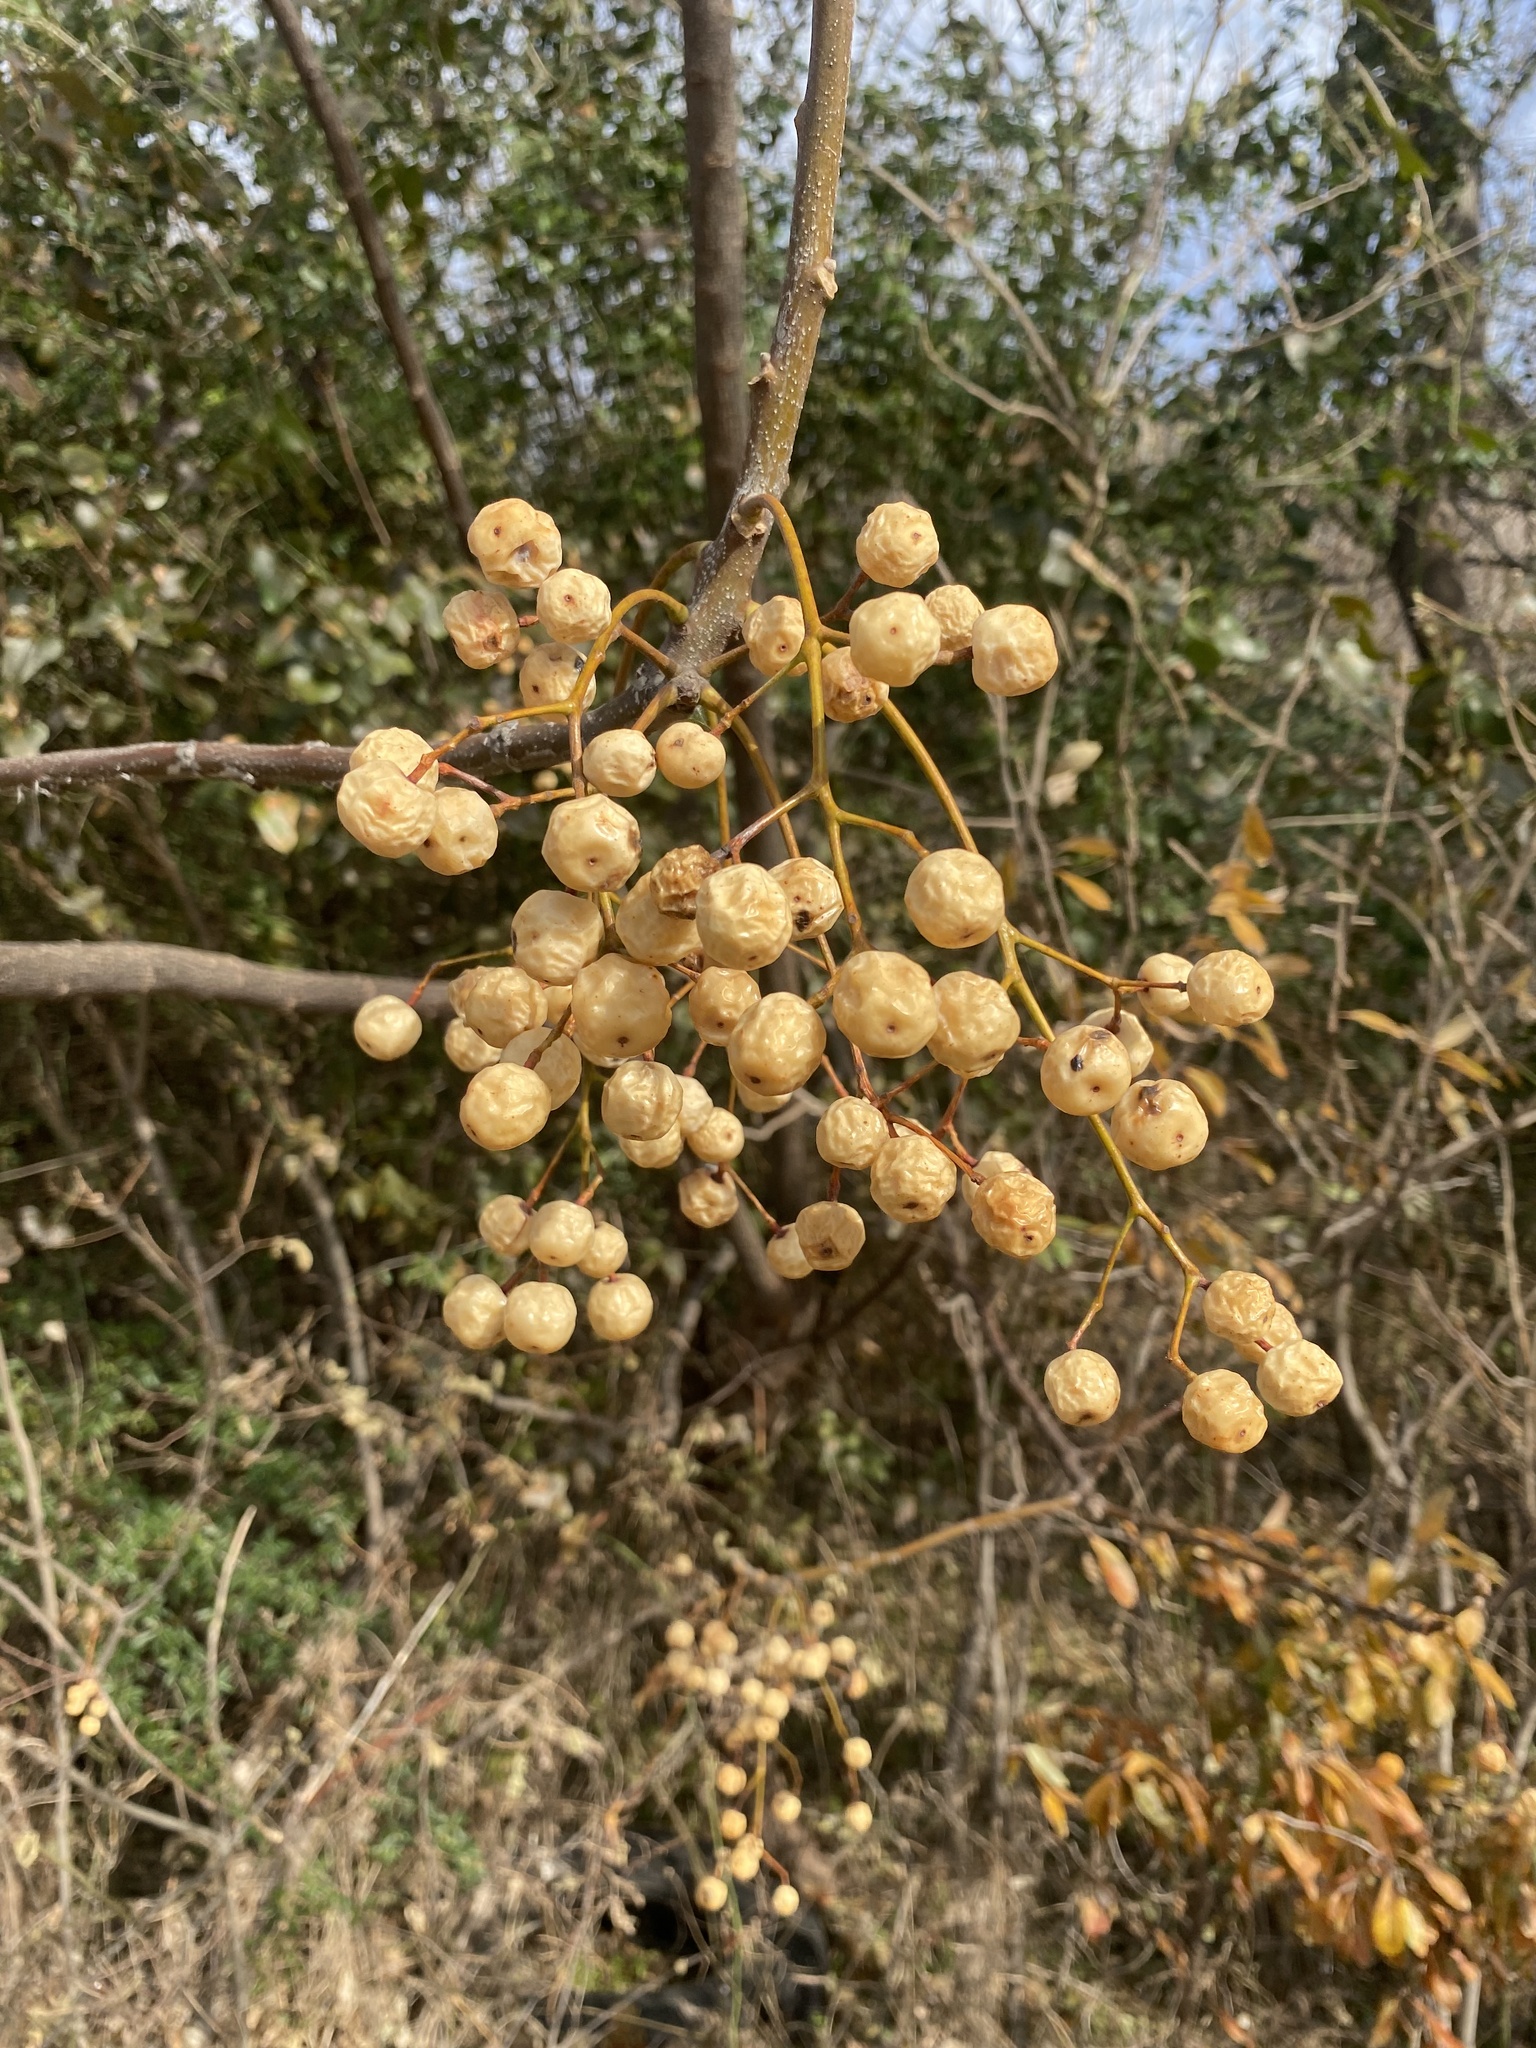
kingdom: Plantae
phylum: Tracheophyta
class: Magnoliopsida
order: Sapindales
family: Meliaceae
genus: Melia
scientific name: Melia azedarach
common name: Chinaberrytree
